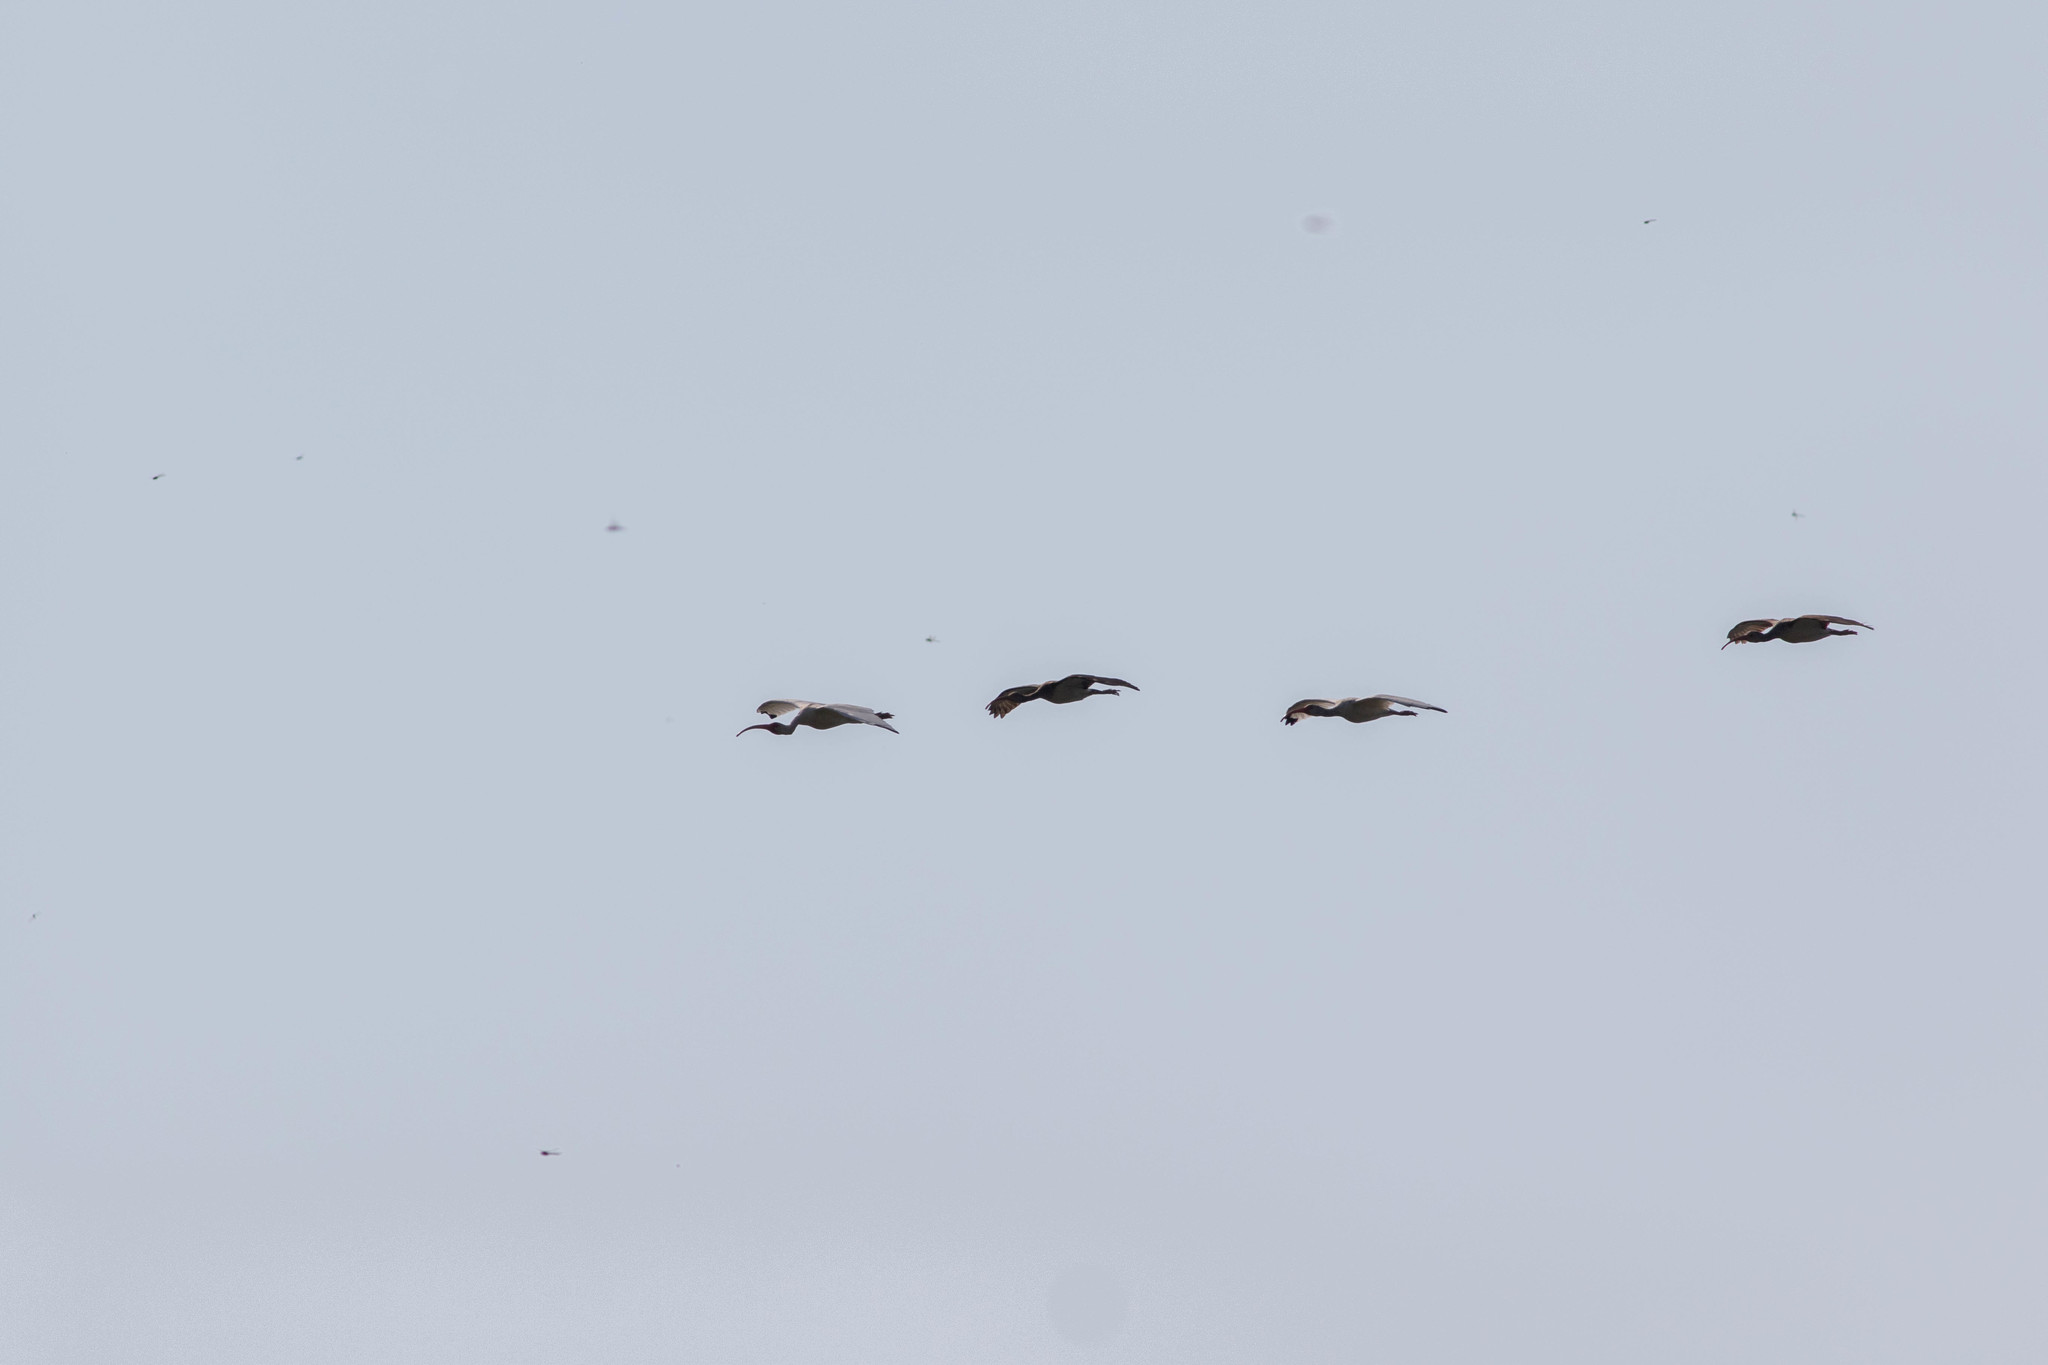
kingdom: Animalia
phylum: Chordata
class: Aves
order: Pelecaniformes
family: Threskiornithidae
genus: Eudocimus
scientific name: Eudocimus albus
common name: White ibis
